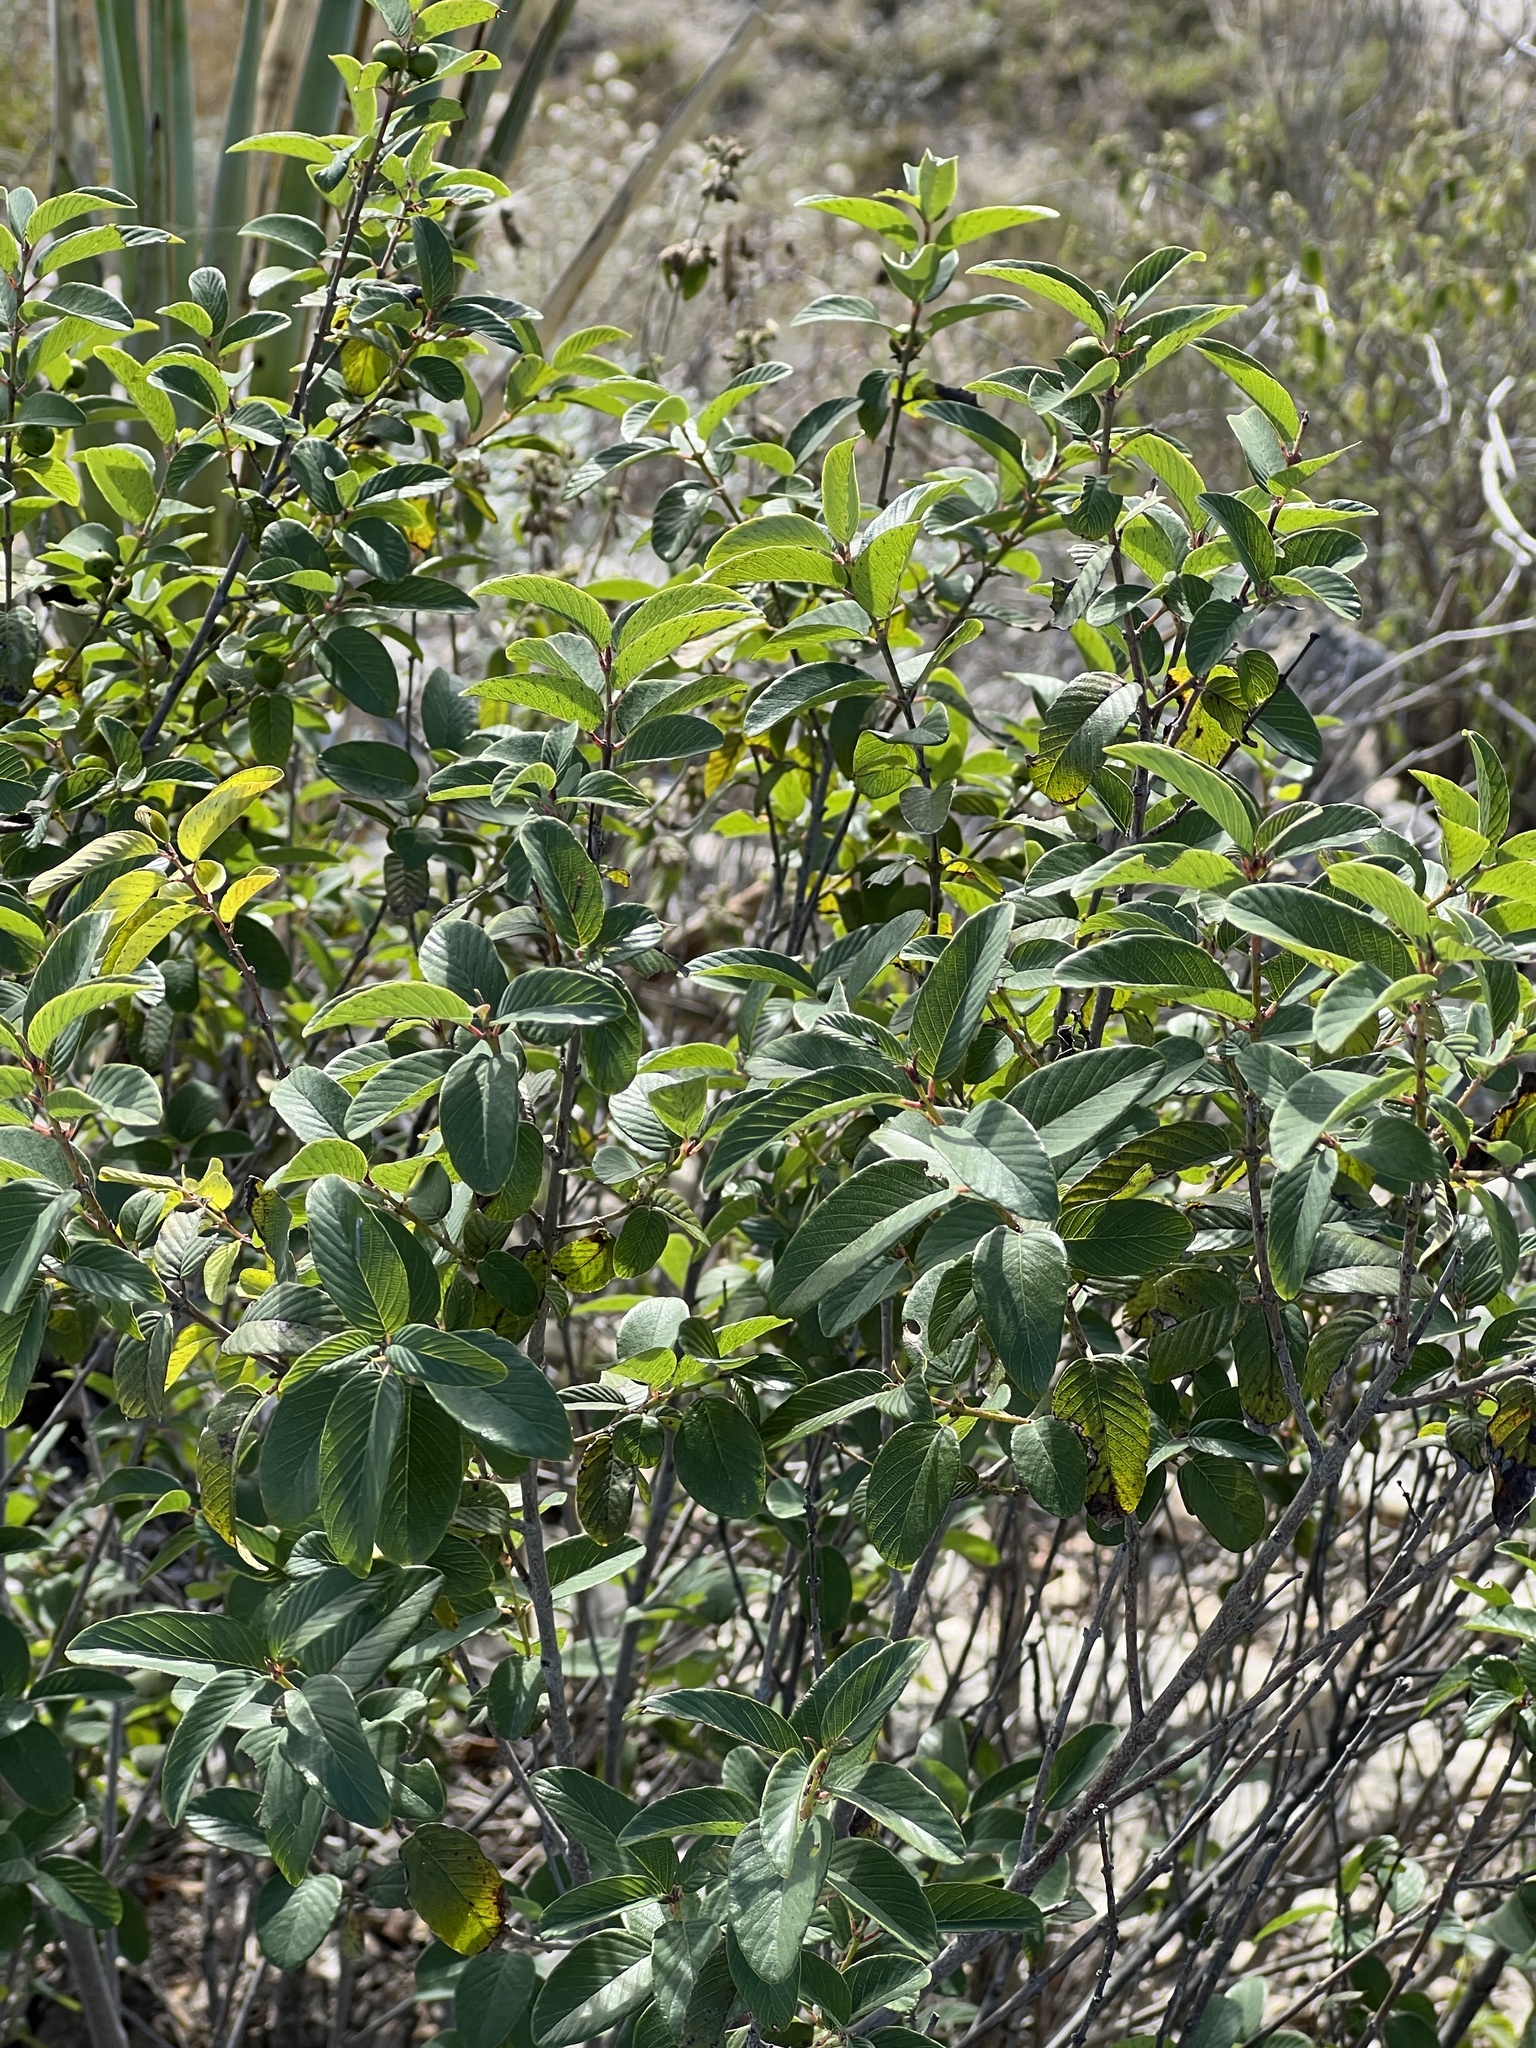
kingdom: Plantae
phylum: Tracheophyta
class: Magnoliopsida
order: Rosales
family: Rhamnaceae
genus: Karwinskia
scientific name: Karwinskia humboldtiana
